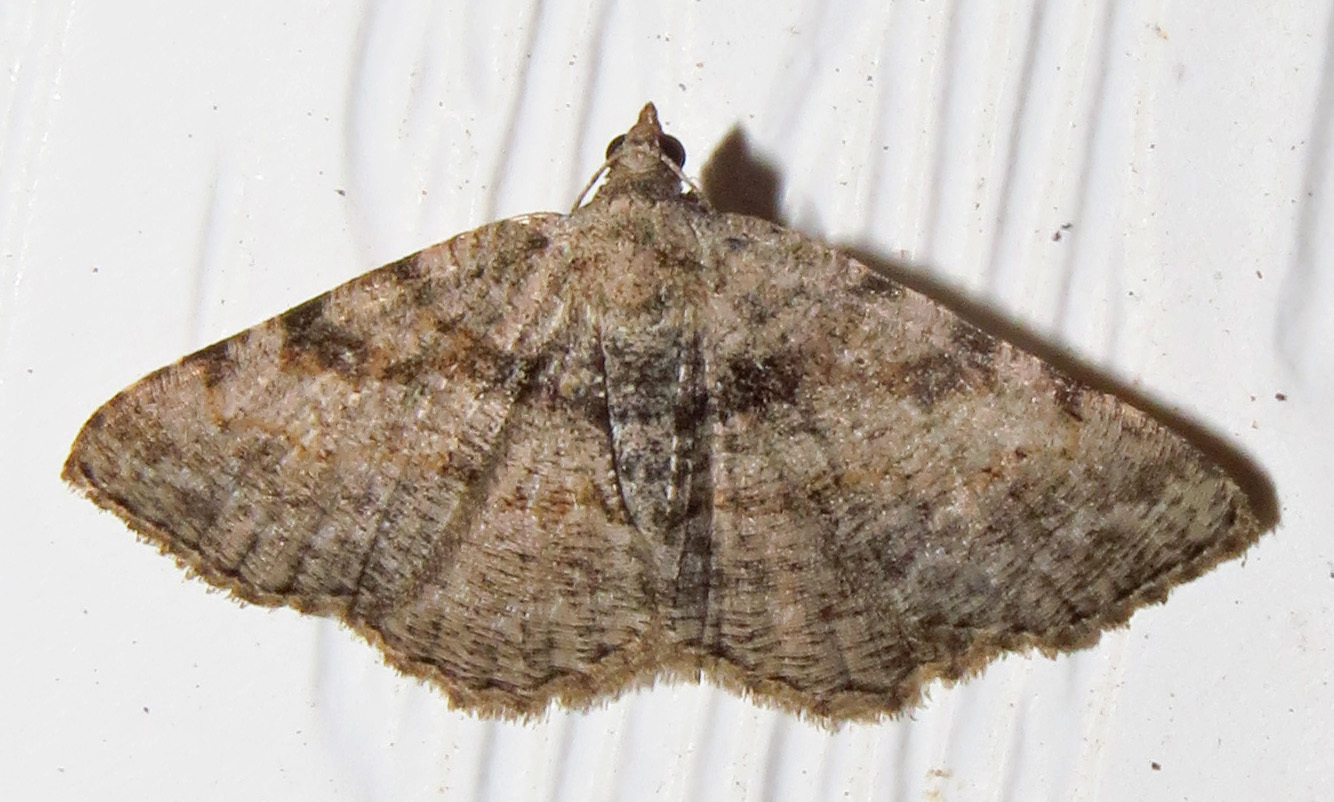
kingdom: Animalia
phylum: Arthropoda
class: Insecta
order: Lepidoptera
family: Geometridae
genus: Digrammia
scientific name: Digrammia gnophosaria
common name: Hollow-spotted angle
